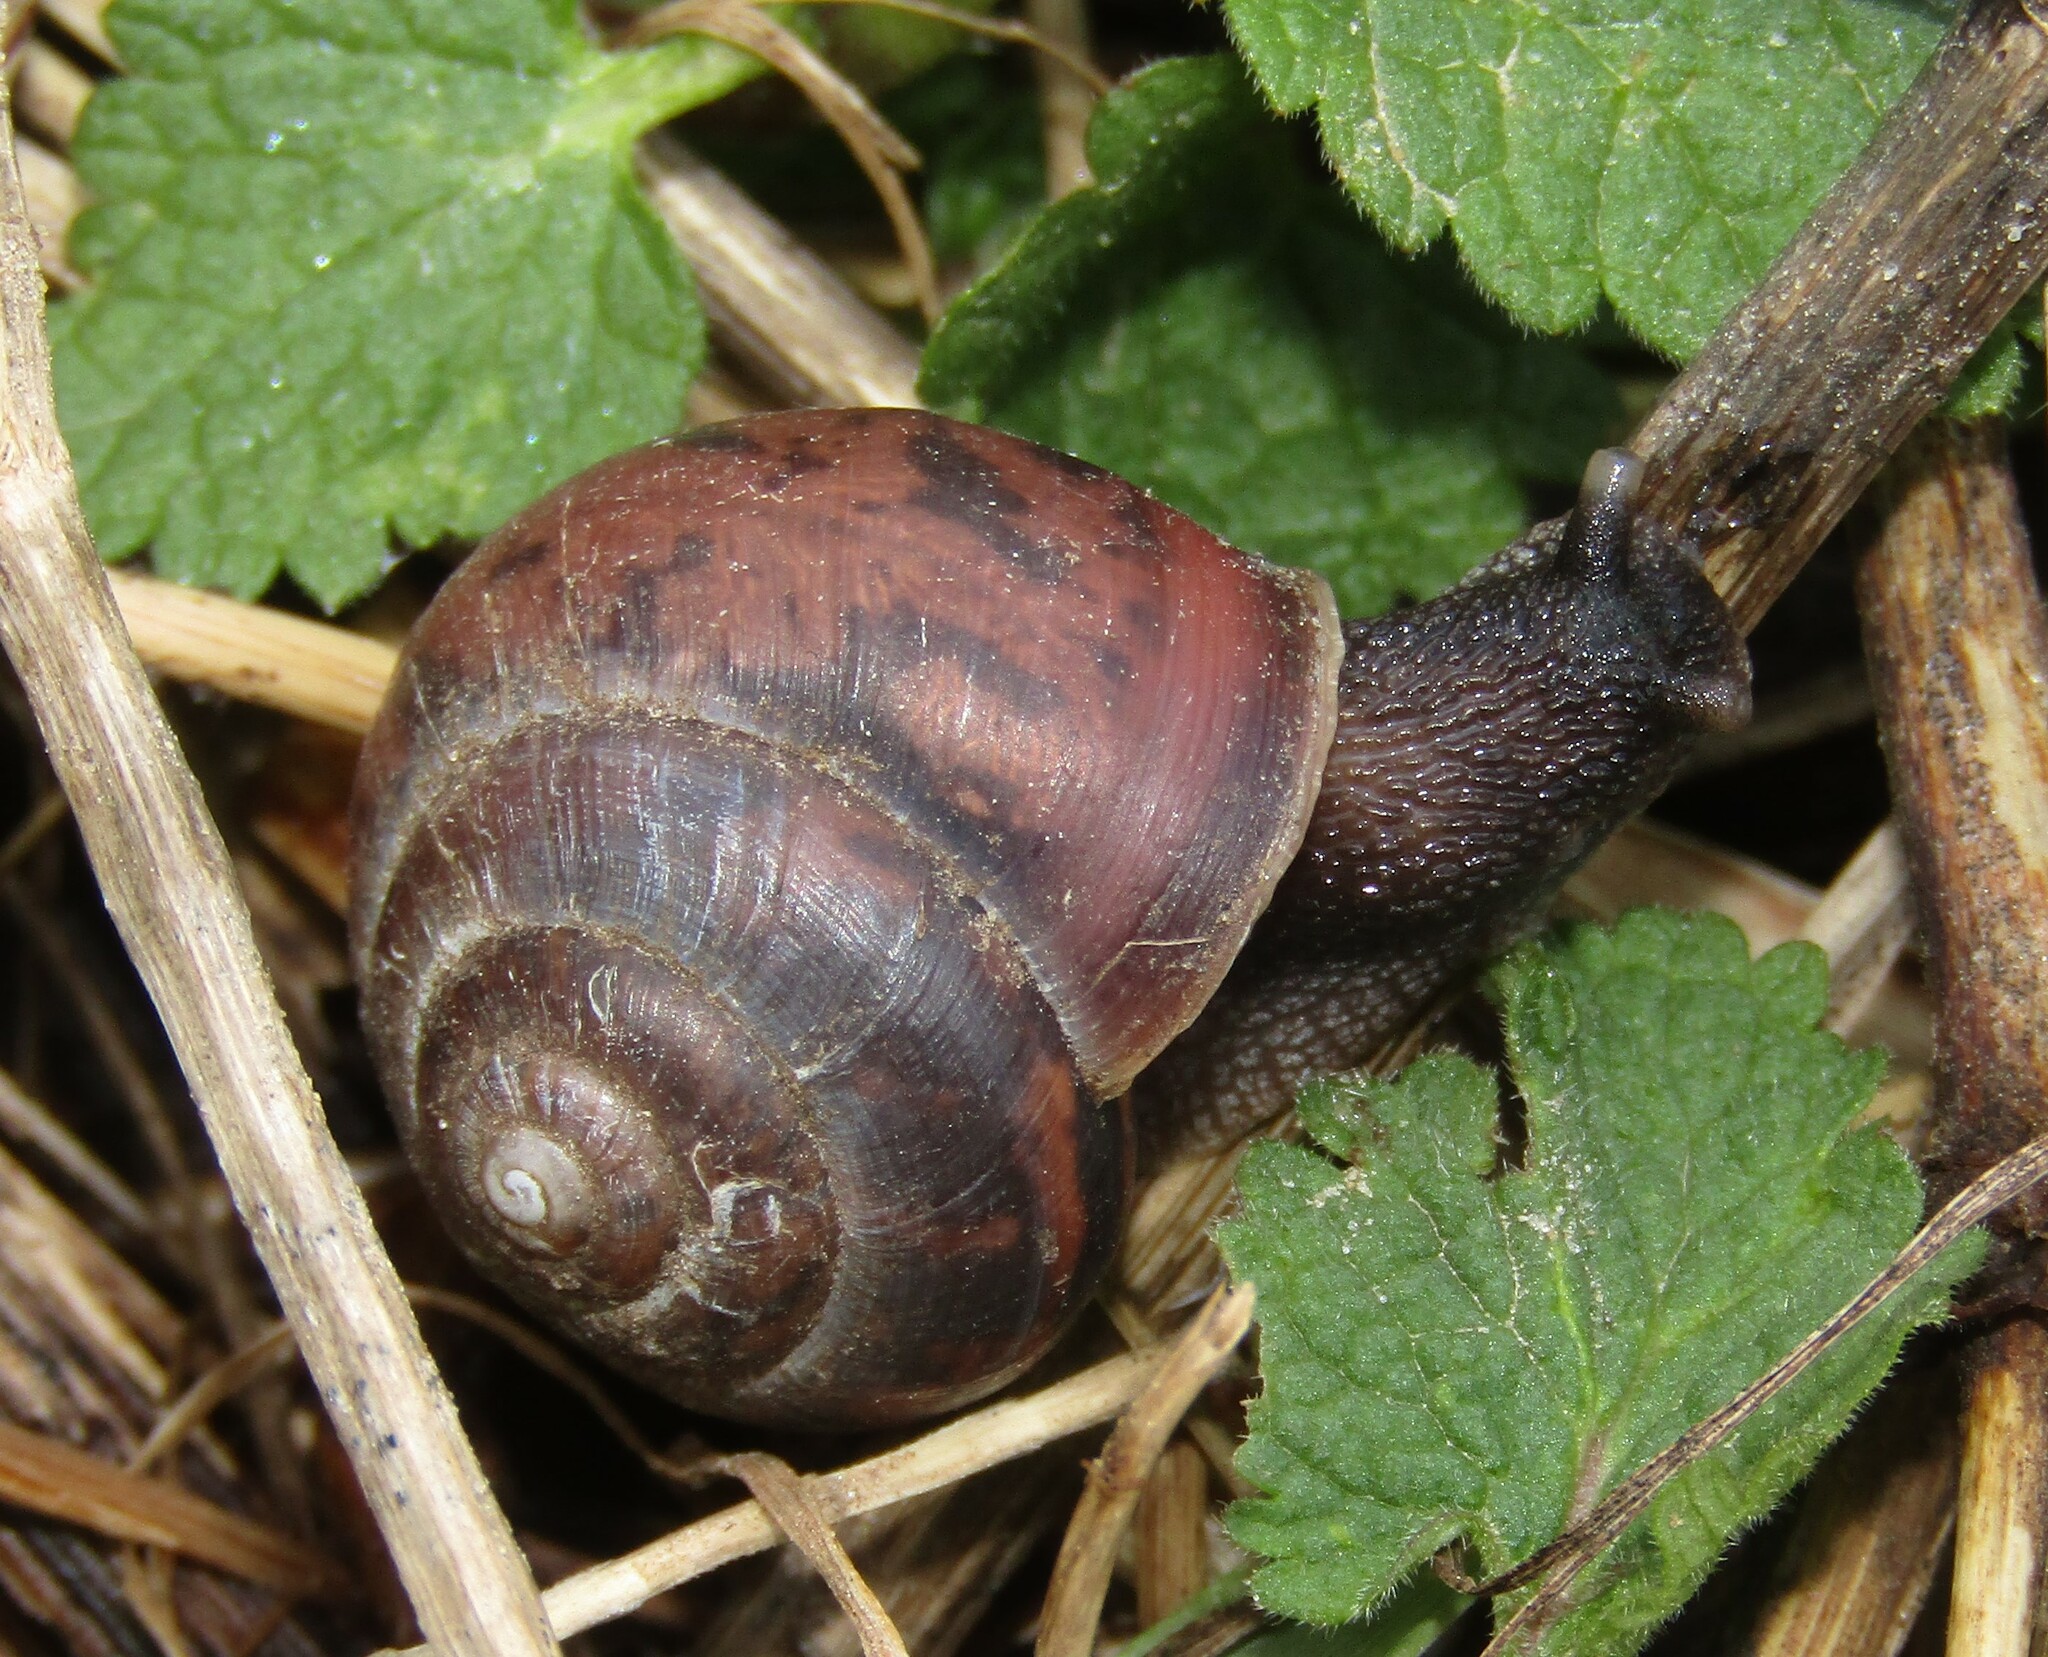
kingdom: Animalia
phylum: Mollusca
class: Gastropoda
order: Stylommatophora
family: Camaenidae
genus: Fruticicola
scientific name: Fruticicola fruticum
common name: Bush snail
